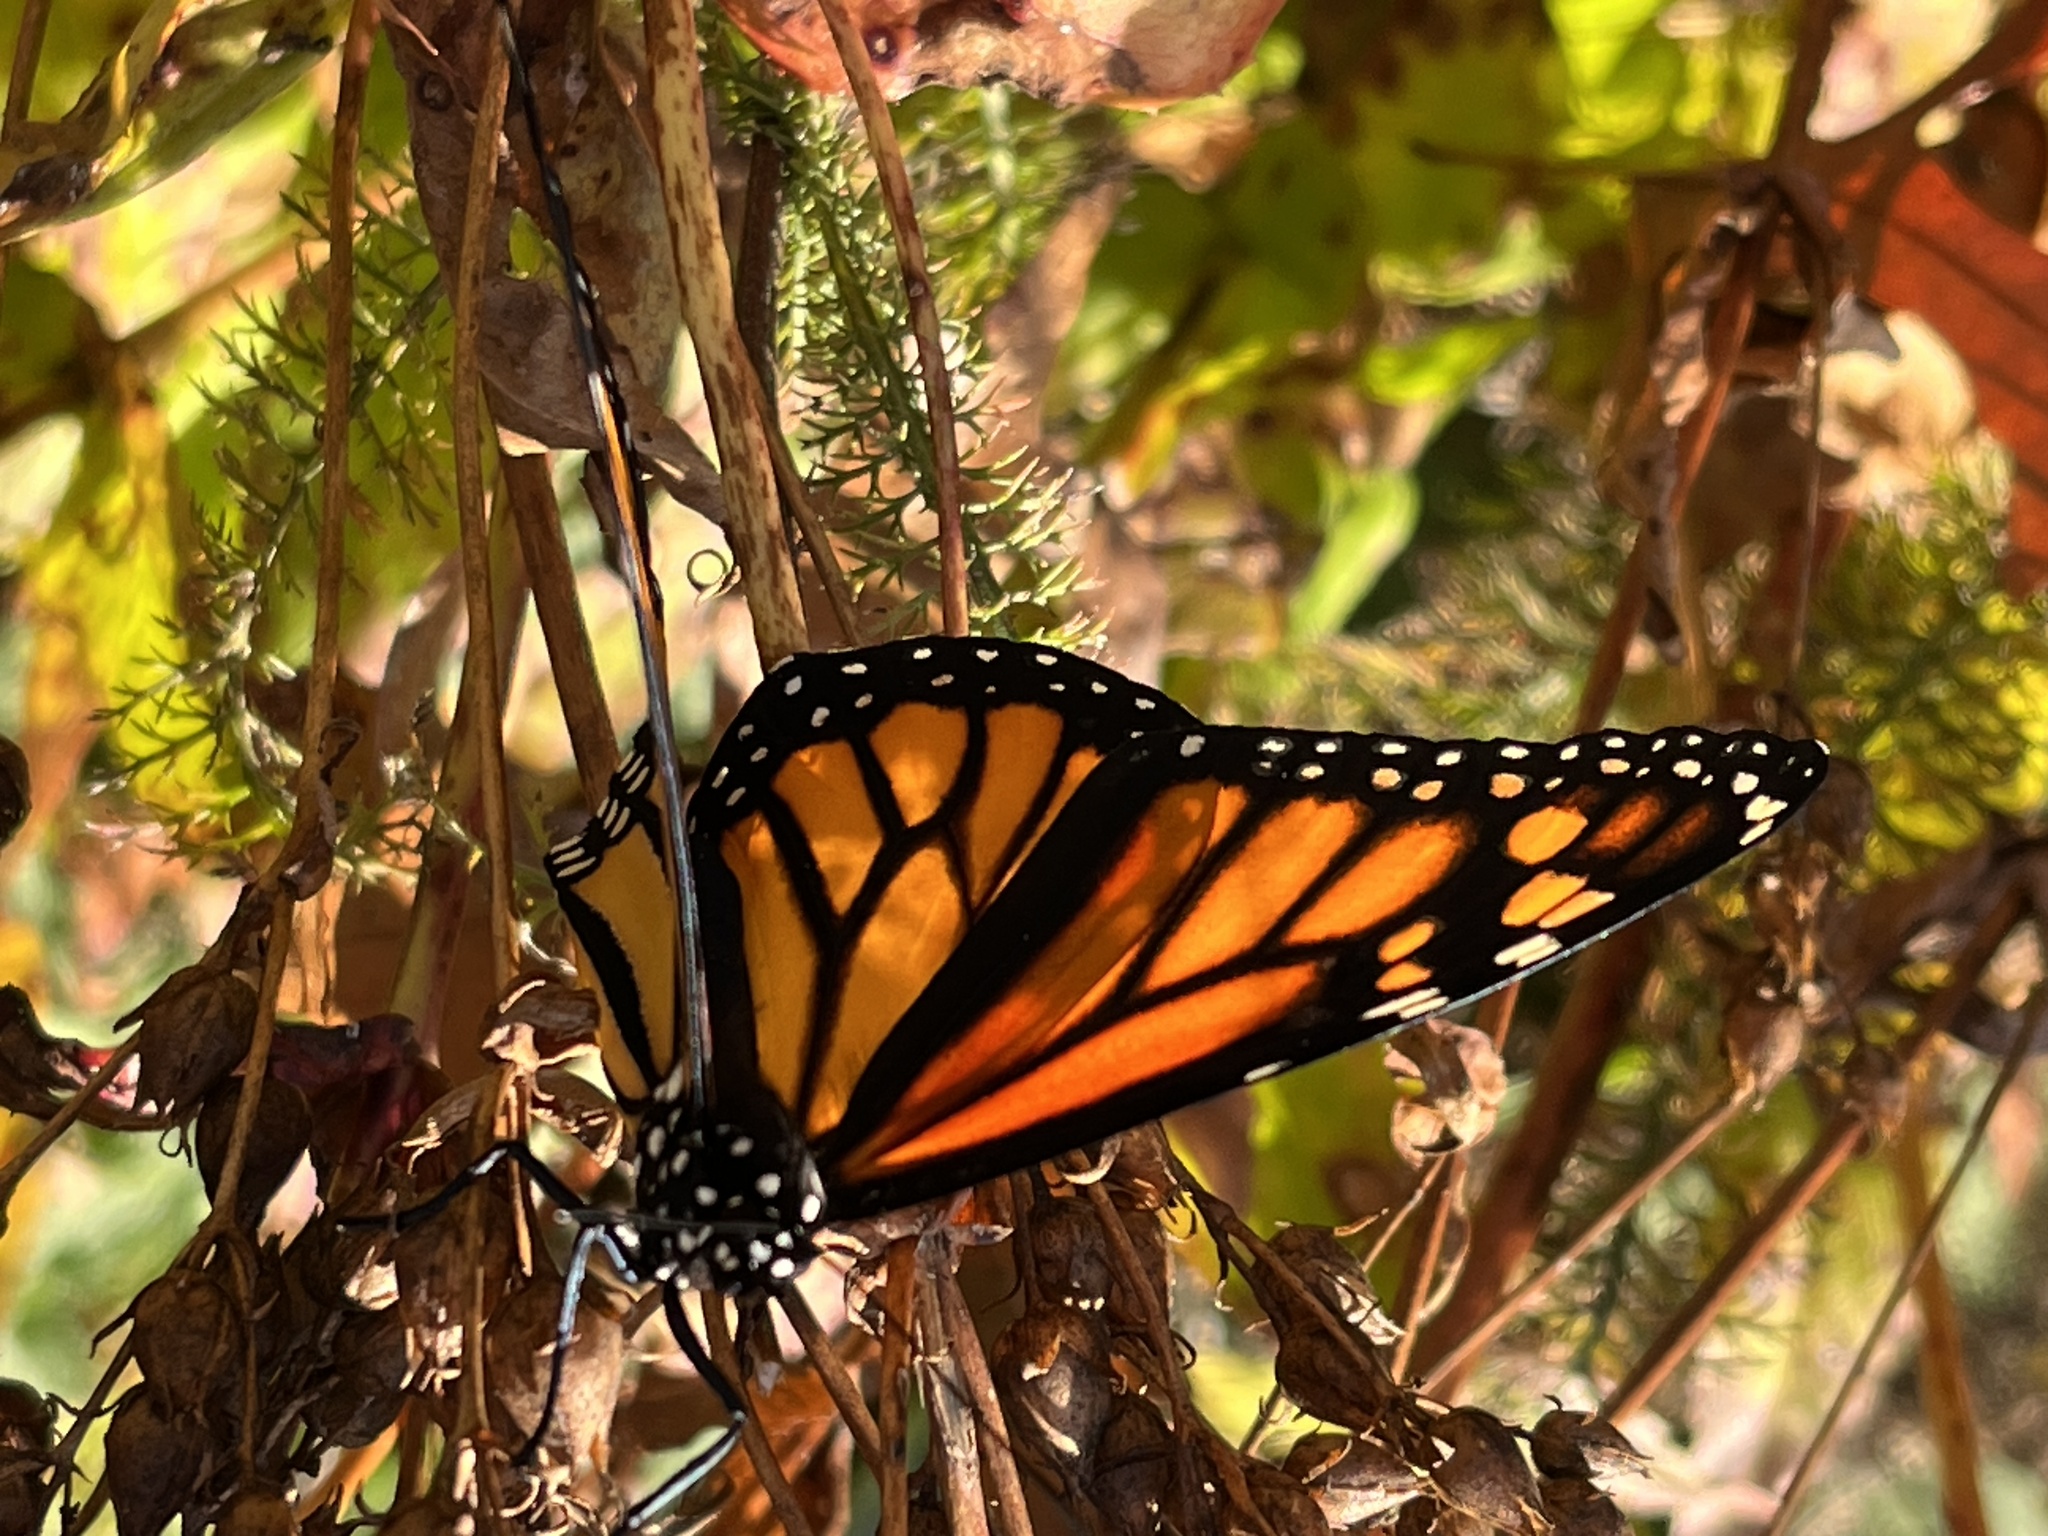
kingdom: Animalia
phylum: Arthropoda
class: Insecta
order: Lepidoptera
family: Nymphalidae
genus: Danaus
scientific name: Danaus plexippus
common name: Monarch
